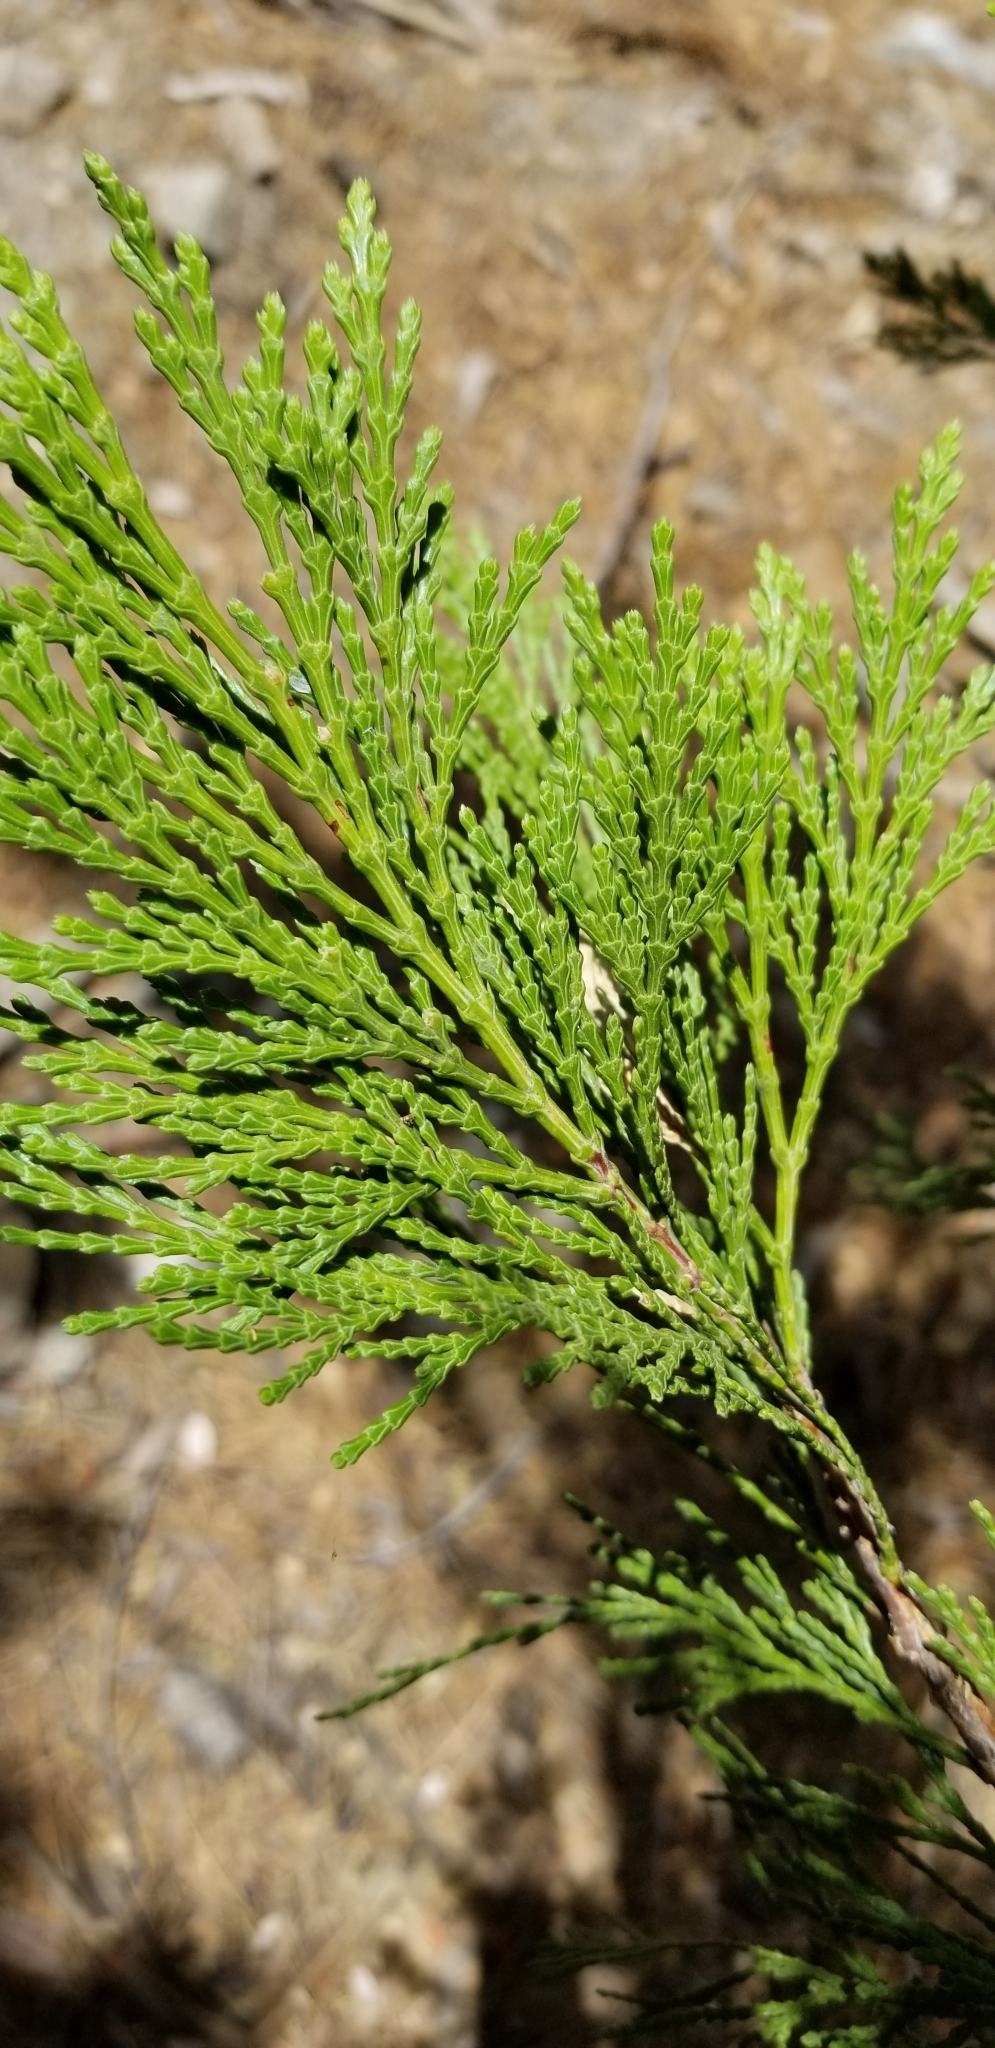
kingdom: Plantae
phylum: Tracheophyta
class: Pinopsida
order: Pinales
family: Cupressaceae
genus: Calocedrus
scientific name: Calocedrus decurrens
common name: Californian incense-cedar
